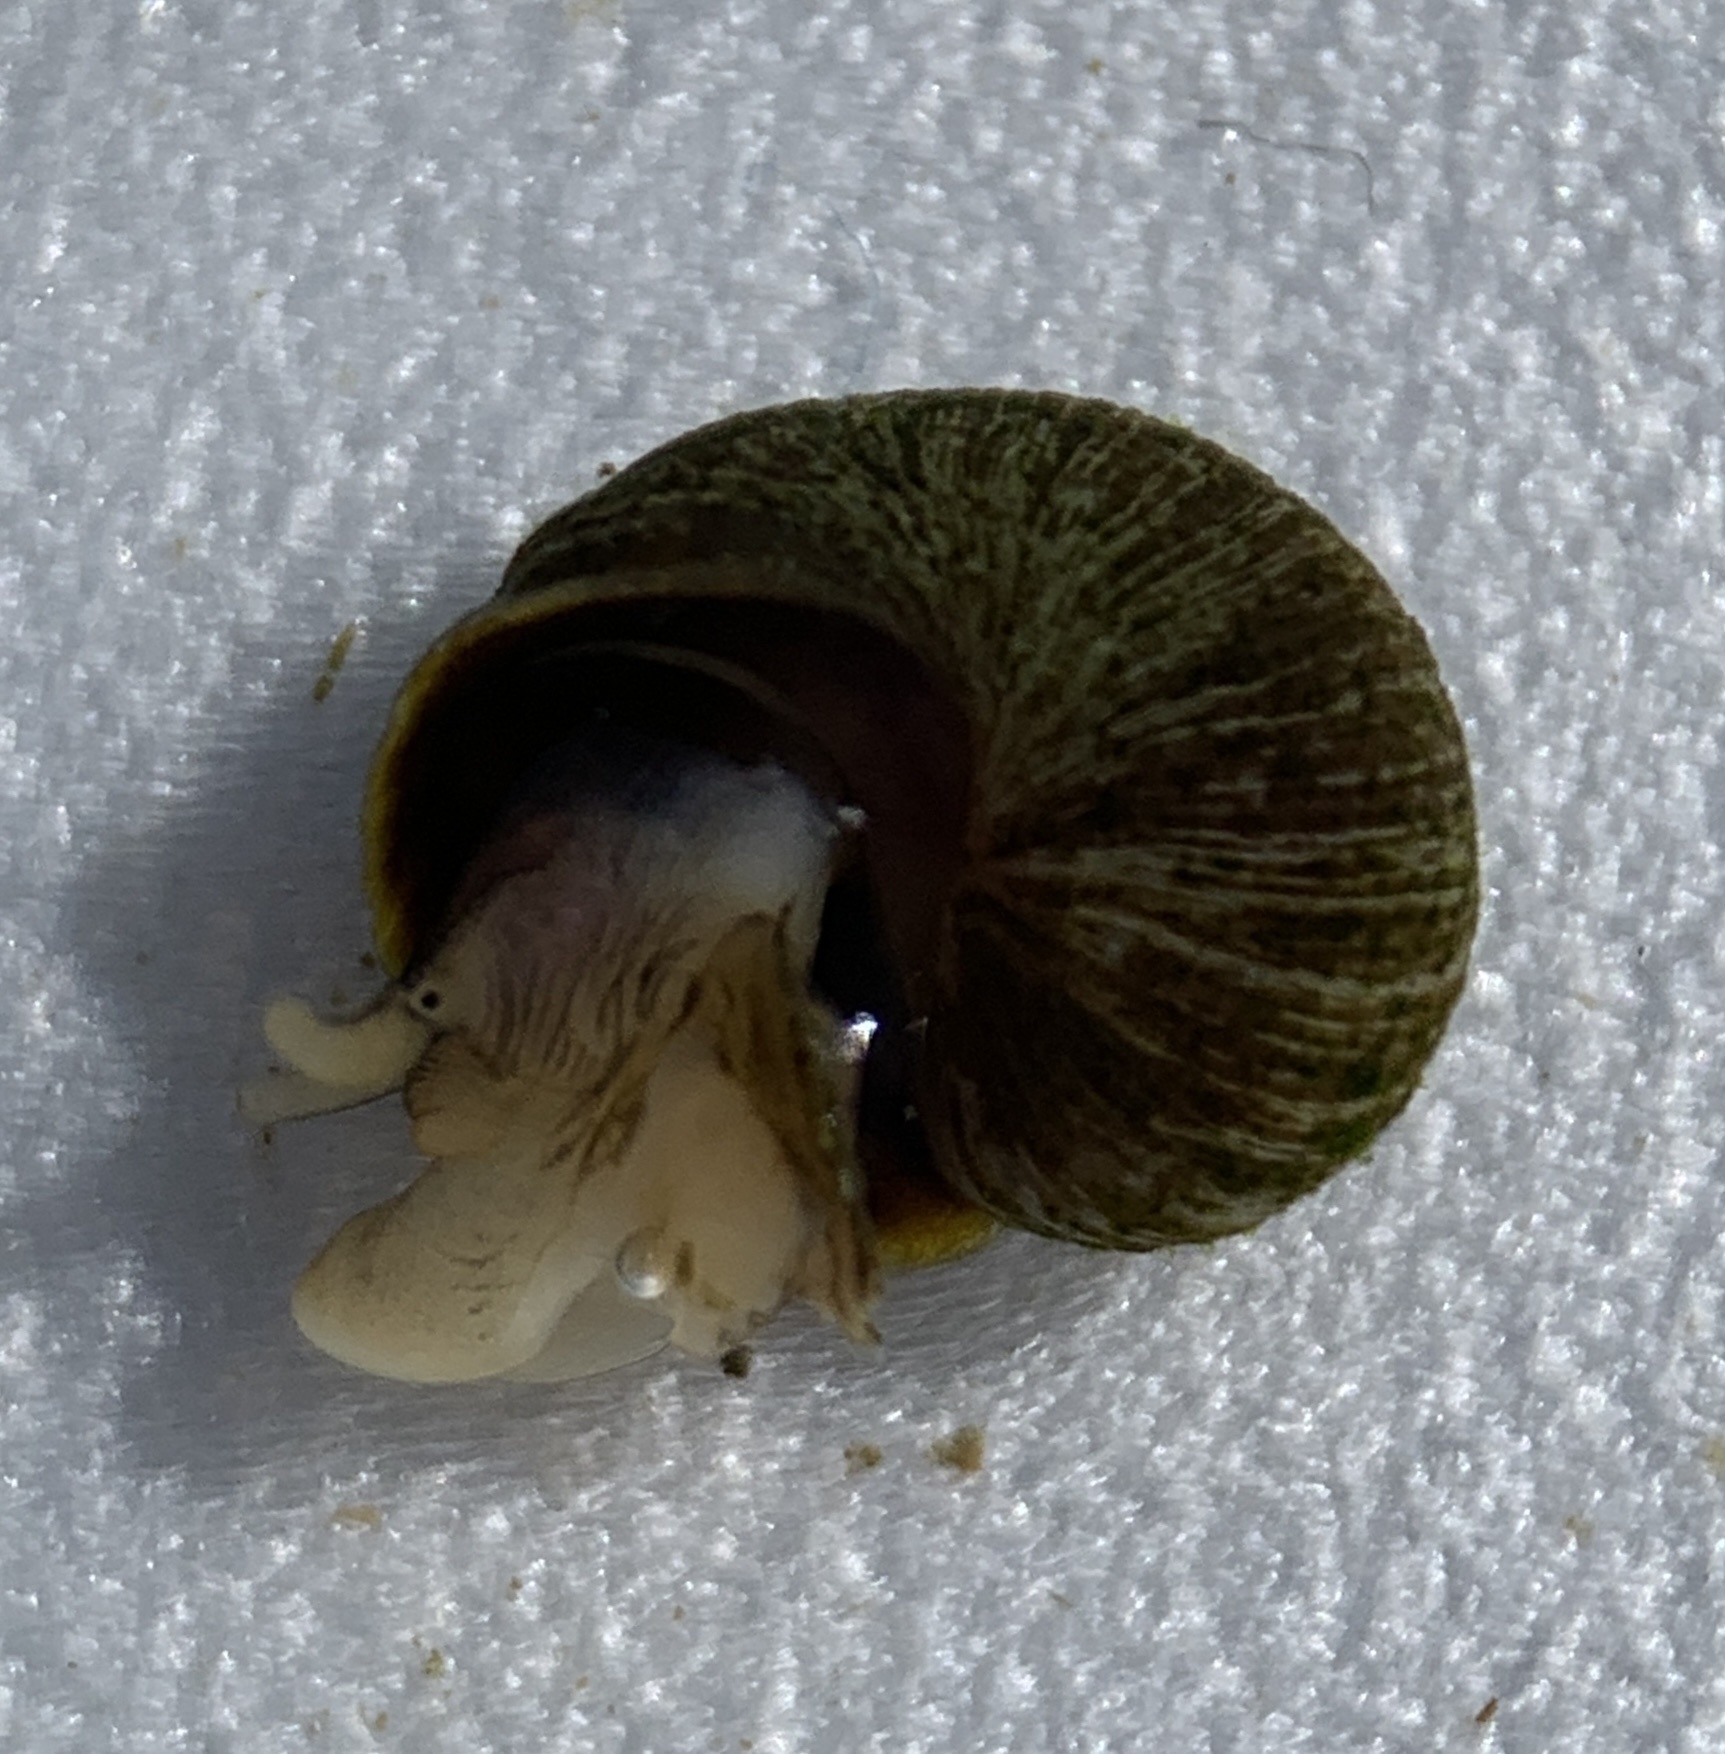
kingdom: Animalia
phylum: Mollusca
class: Gastropoda
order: Littorinimorpha
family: Littorinidae
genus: Littorina
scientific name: Littorina obtusata
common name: Flat periwinkle
